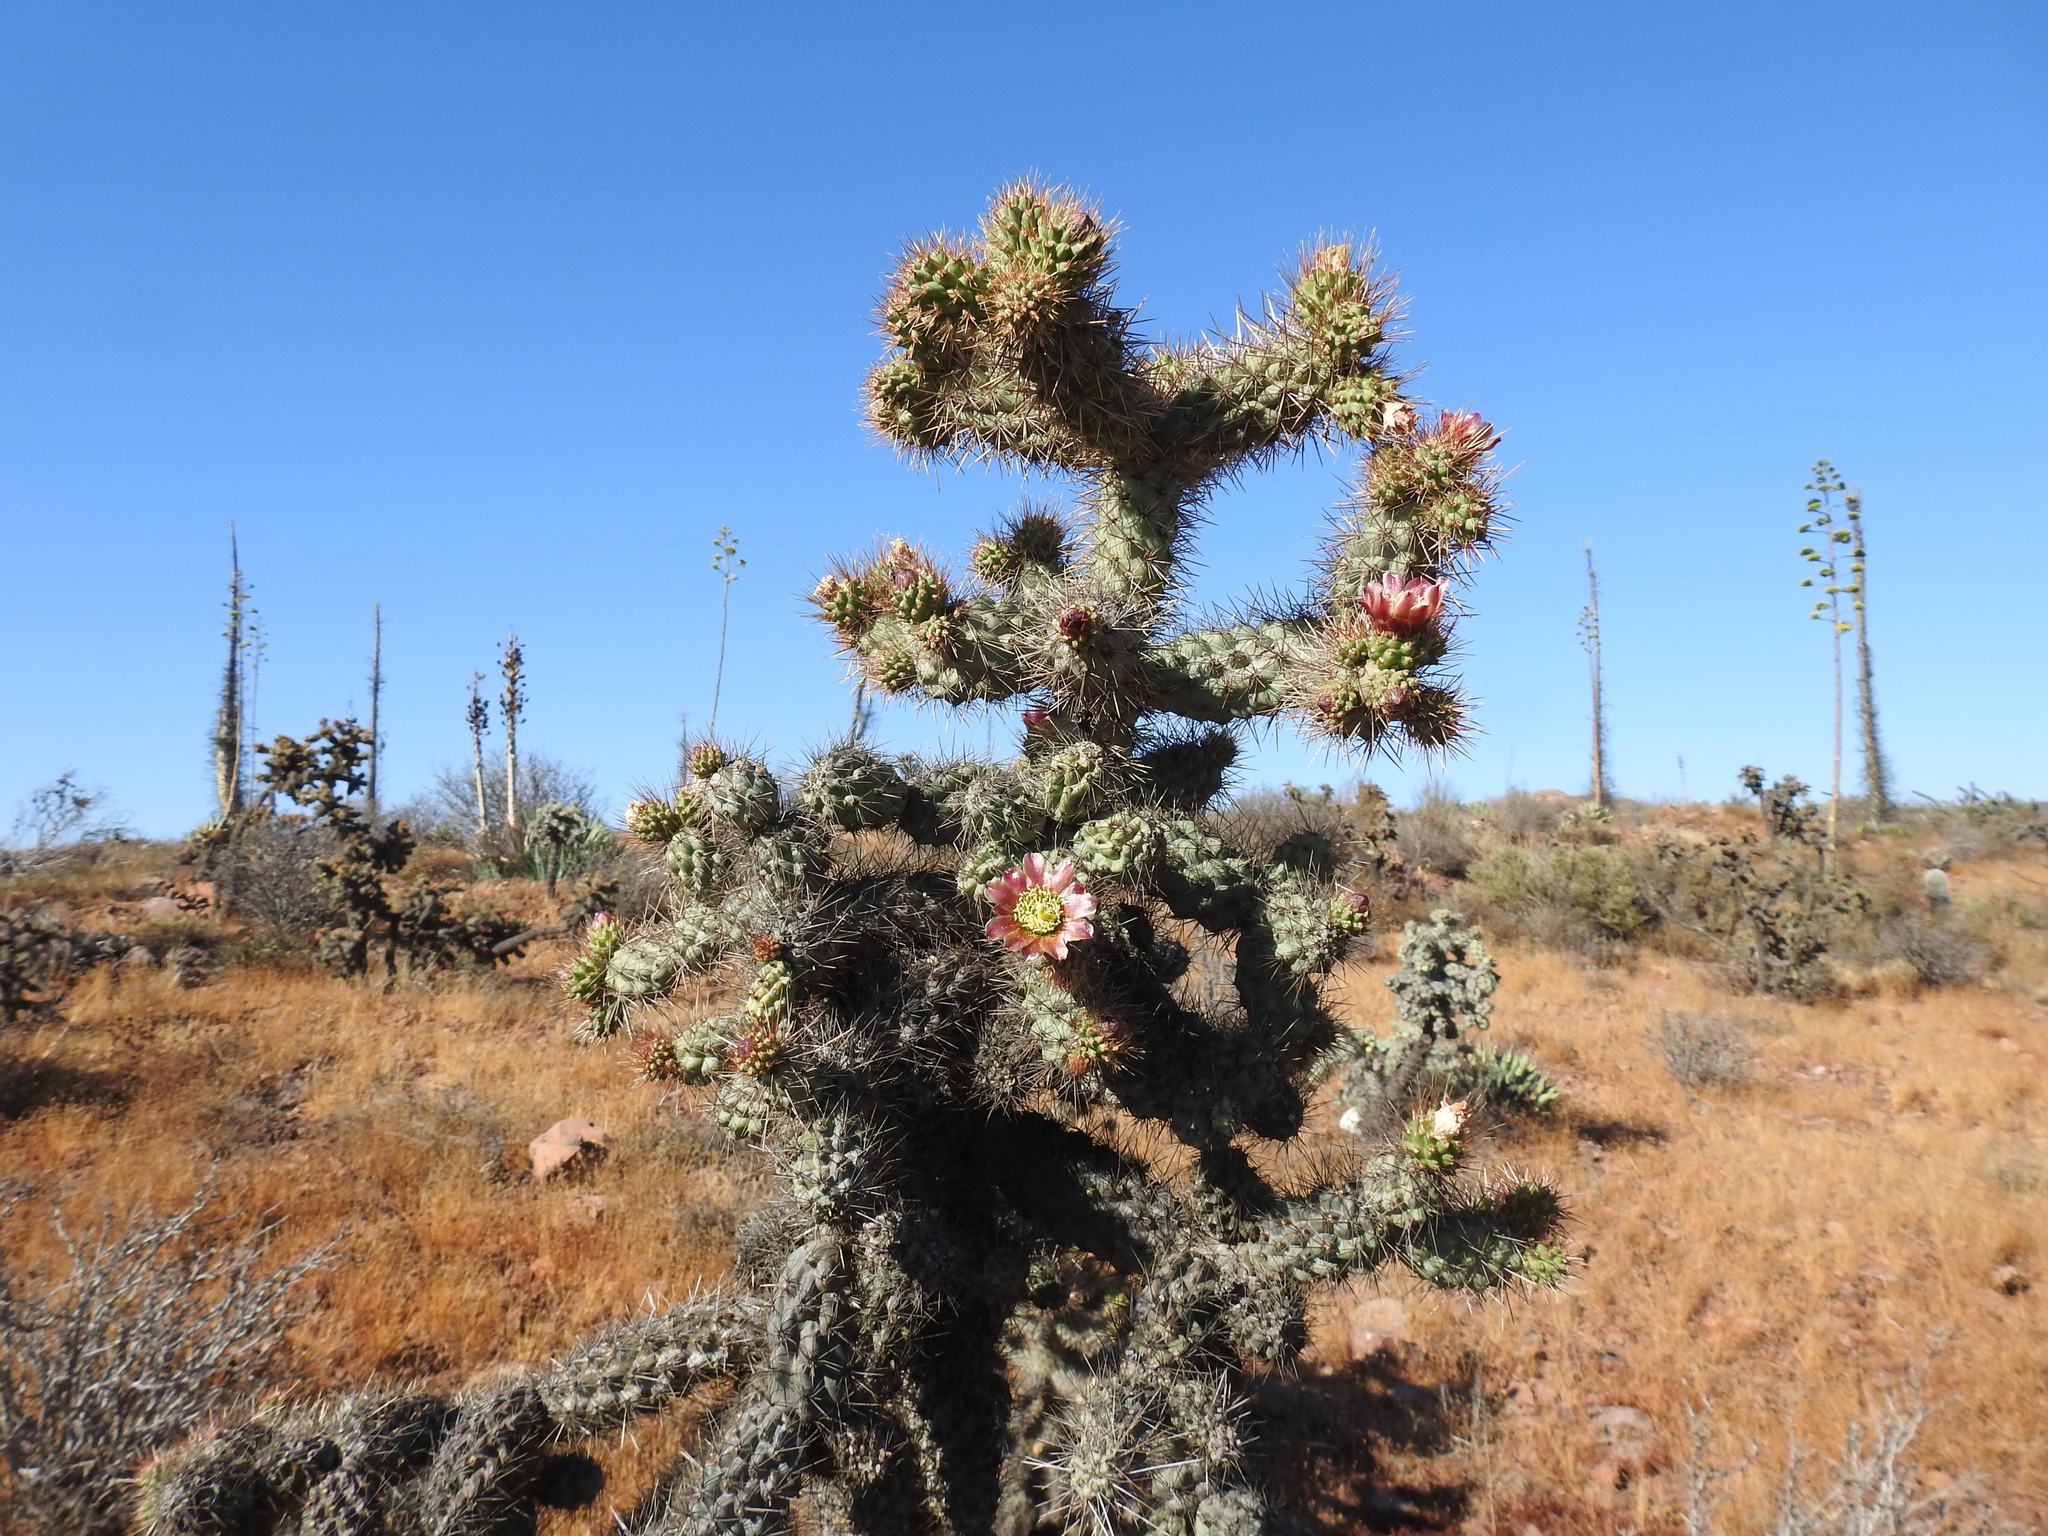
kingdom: Plantae
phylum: Tracheophyta
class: Magnoliopsida
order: Caryophyllales
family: Cactaceae
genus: Cylindropuntia
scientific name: Cylindropuntia alcahes
